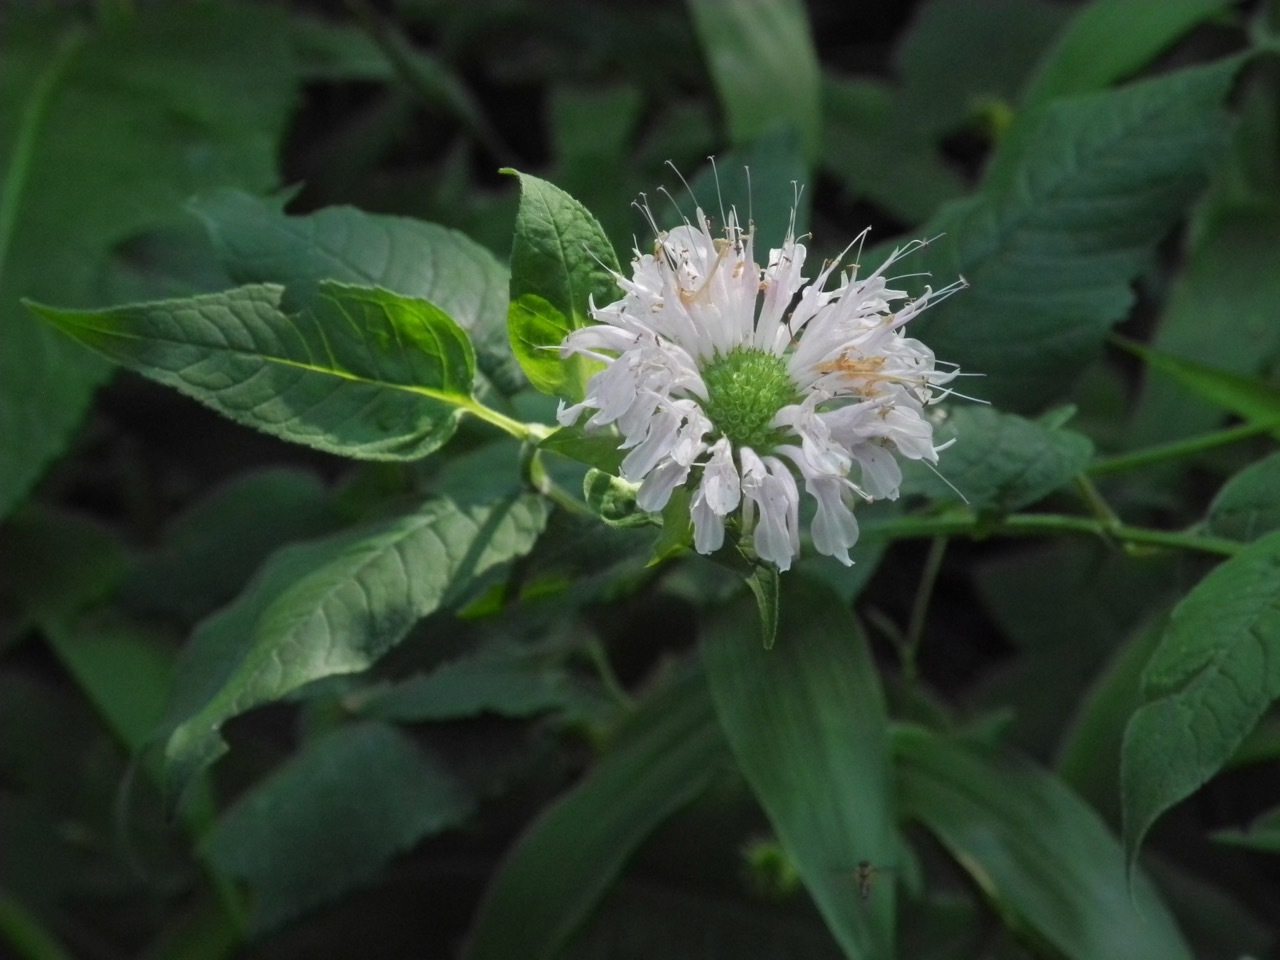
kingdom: Plantae
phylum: Tracheophyta
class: Magnoliopsida
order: Lamiales
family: Lamiaceae
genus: Monarda
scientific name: Monarda clinopodia
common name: Basil beebalm
